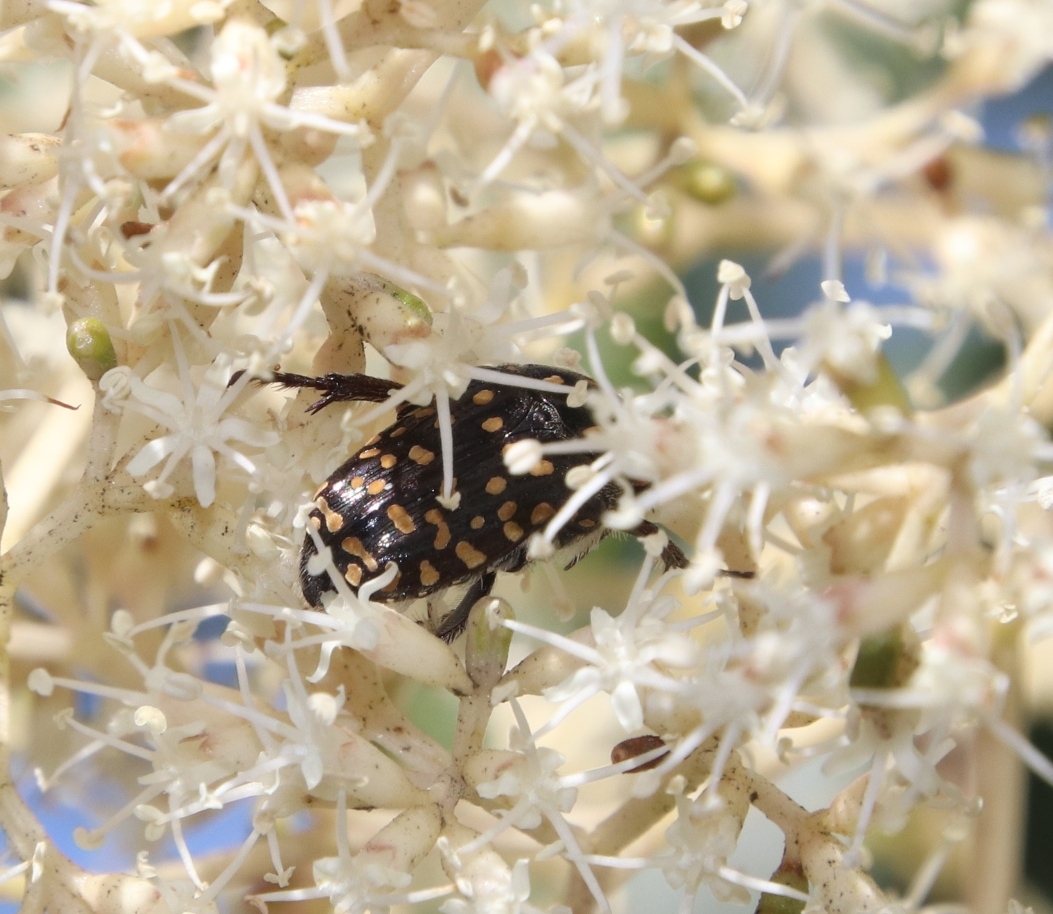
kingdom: Animalia
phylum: Arthropoda
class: Insecta
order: Coleoptera
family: Scarabaeidae
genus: Oxythyrea
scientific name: Oxythyrea
